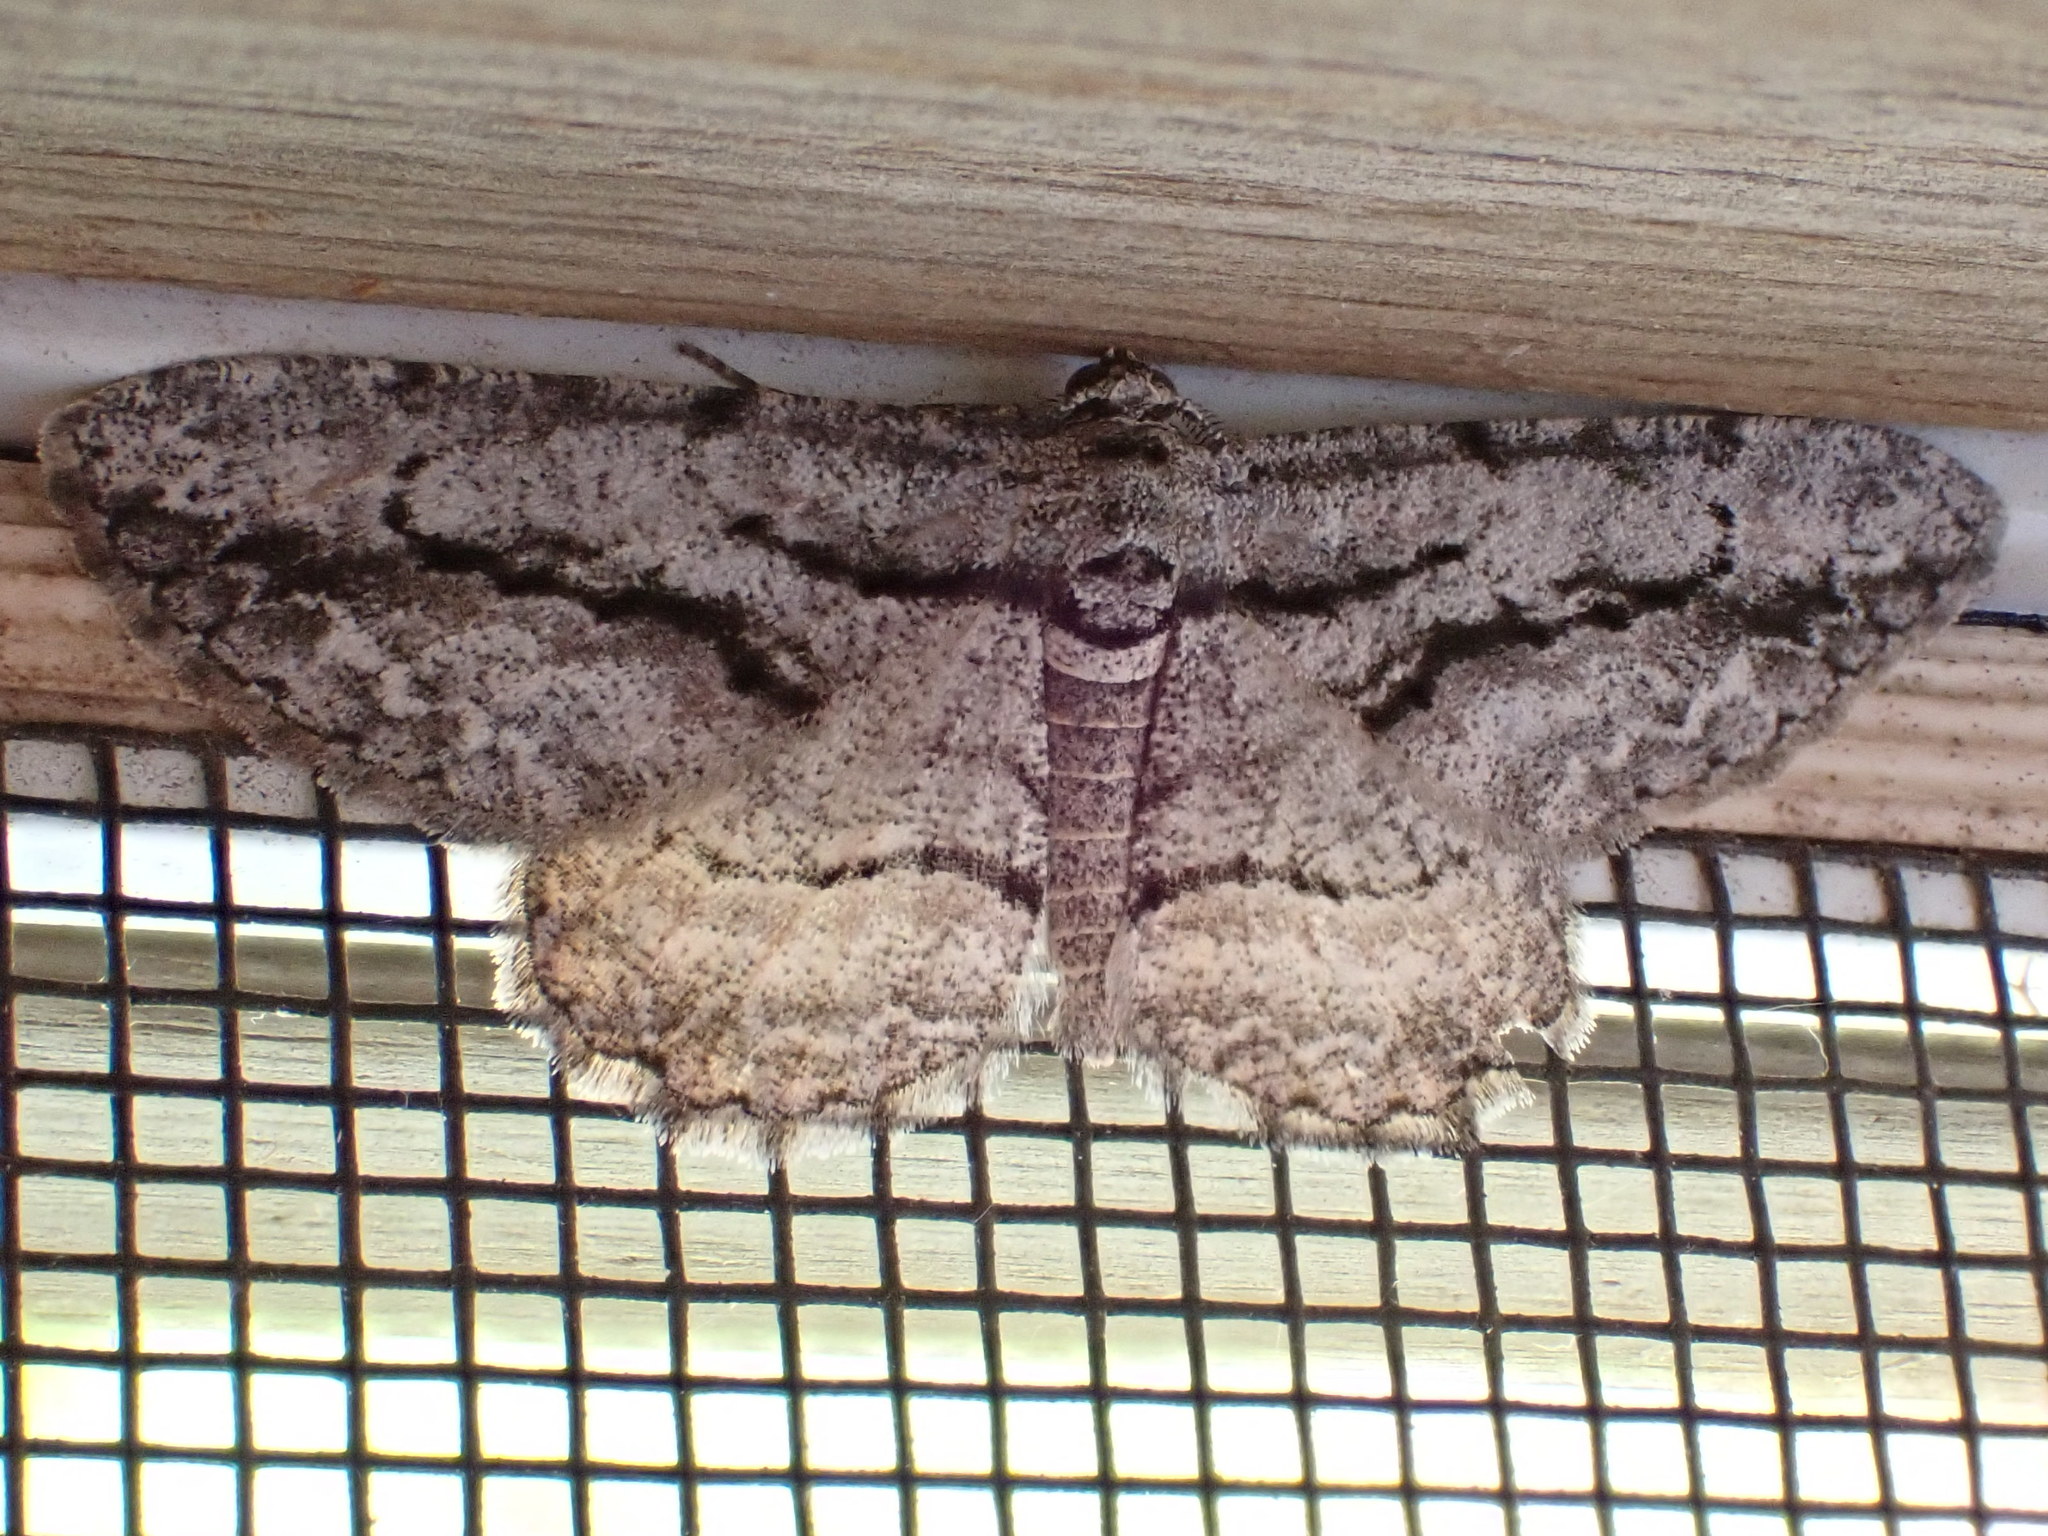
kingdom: Animalia
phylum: Arthropoda
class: Insecta
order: Lepidoptera
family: Geometridae
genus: Anavitrinella
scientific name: Anavitrinella pampinaria
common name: Common gray
